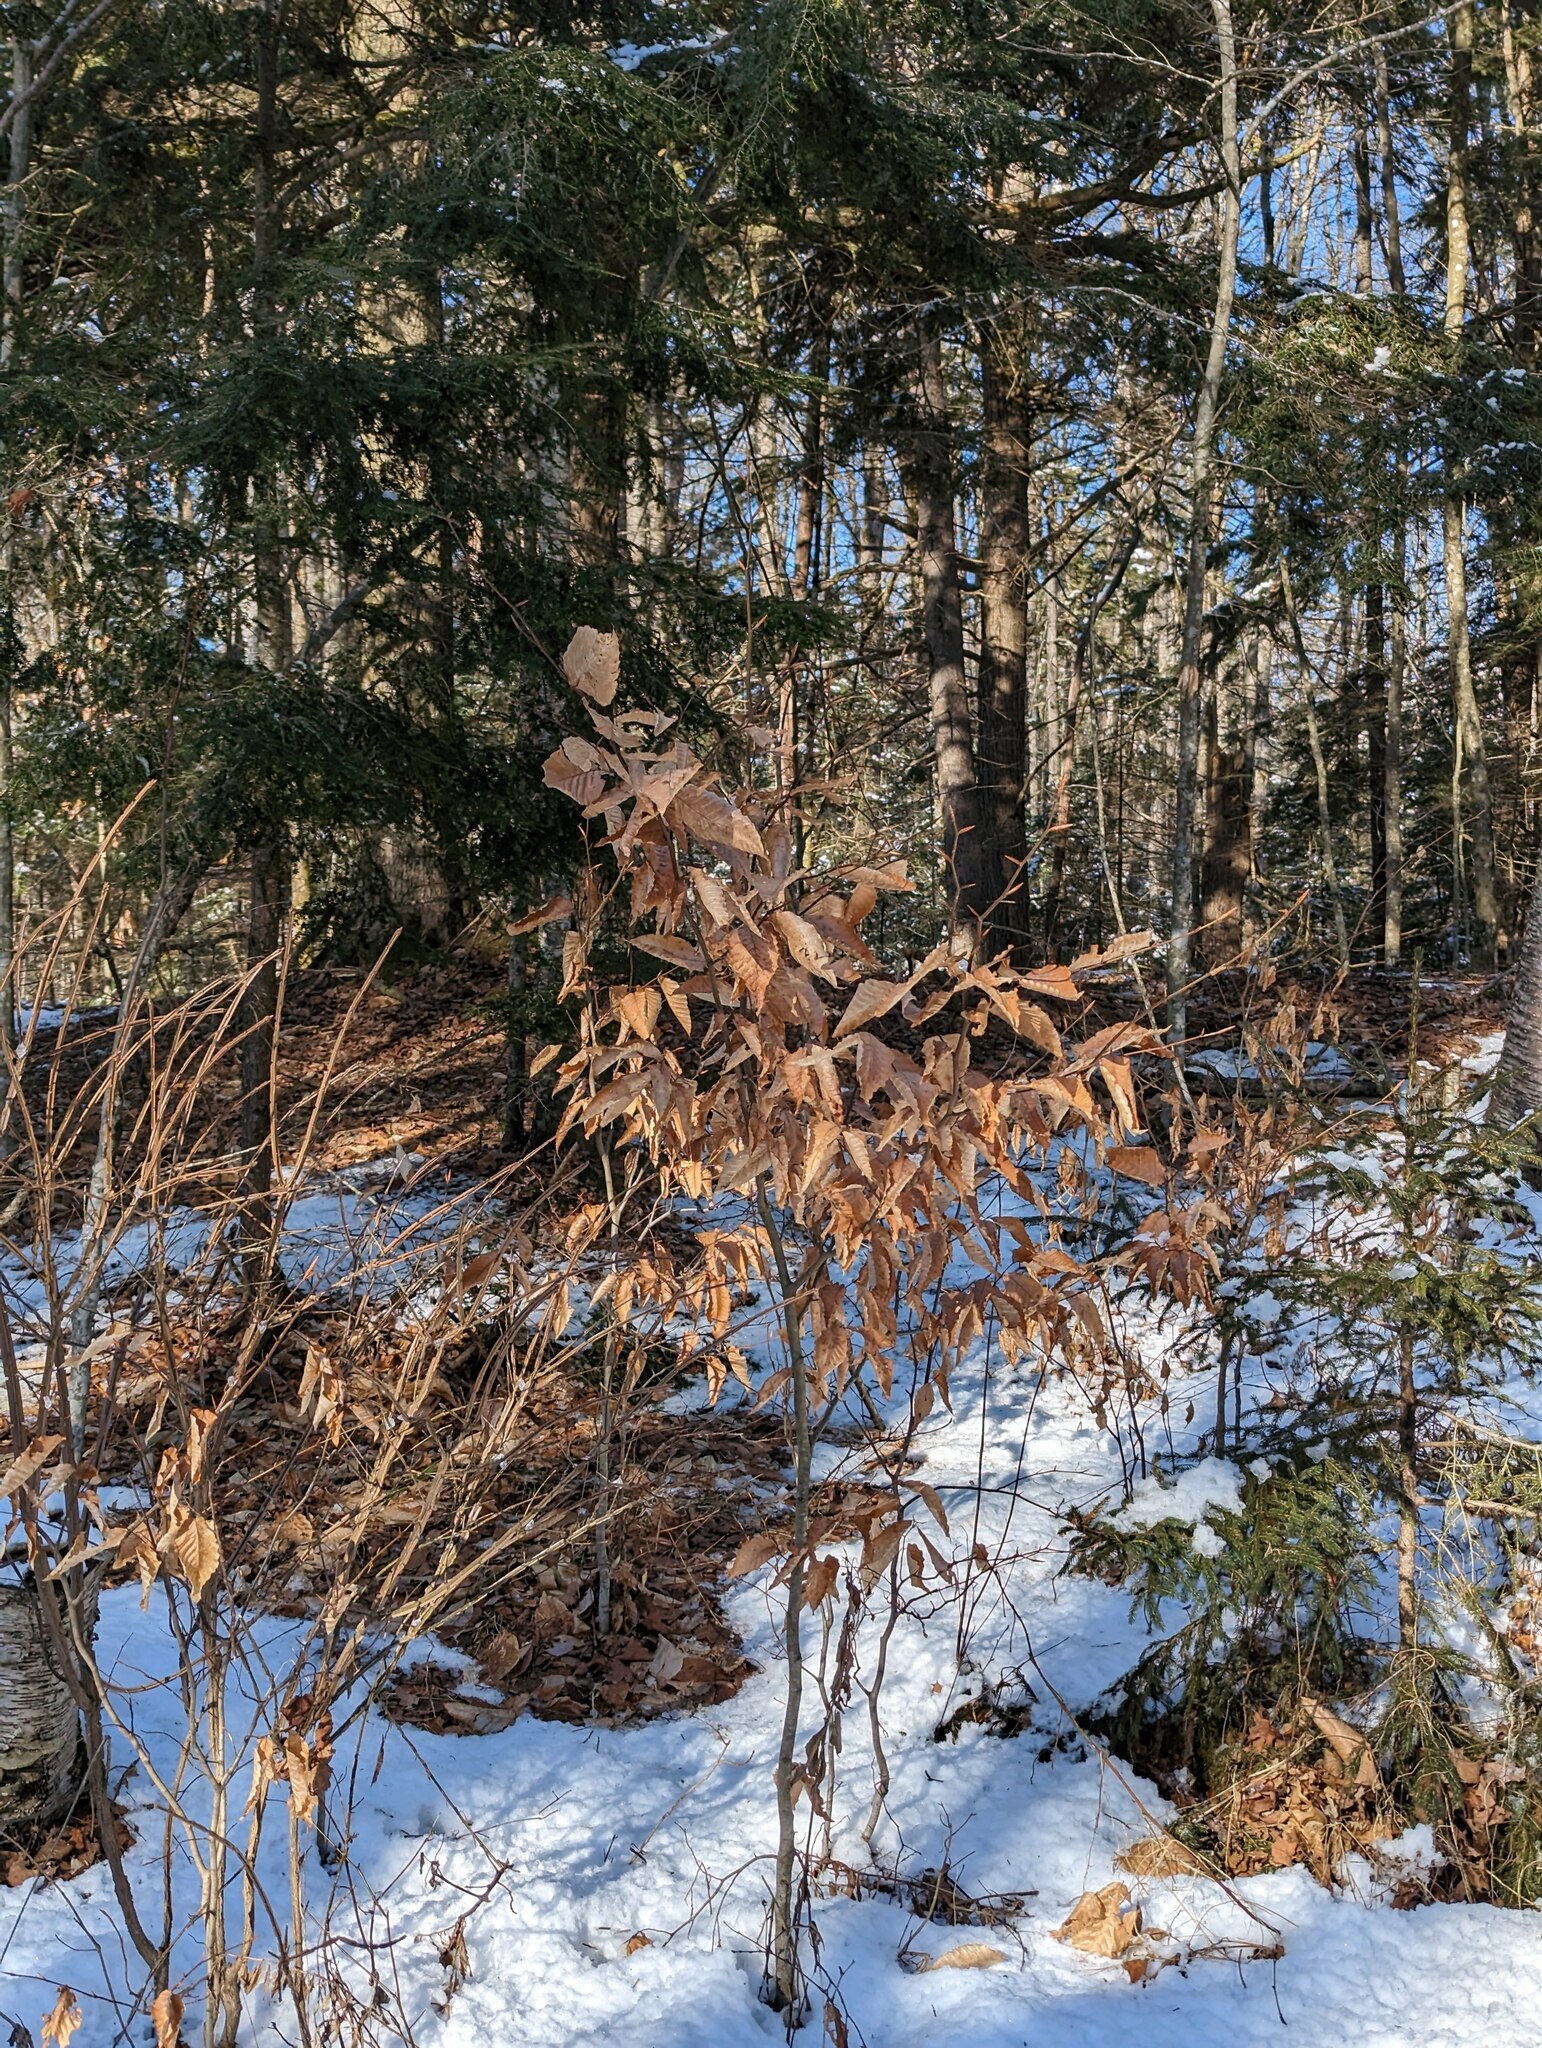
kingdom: Plantae
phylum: Tracheophyta
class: Magnoliopsida
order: Fagales
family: Fagaceae
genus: Fagus
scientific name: Fagus grandifolia
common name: American beech
